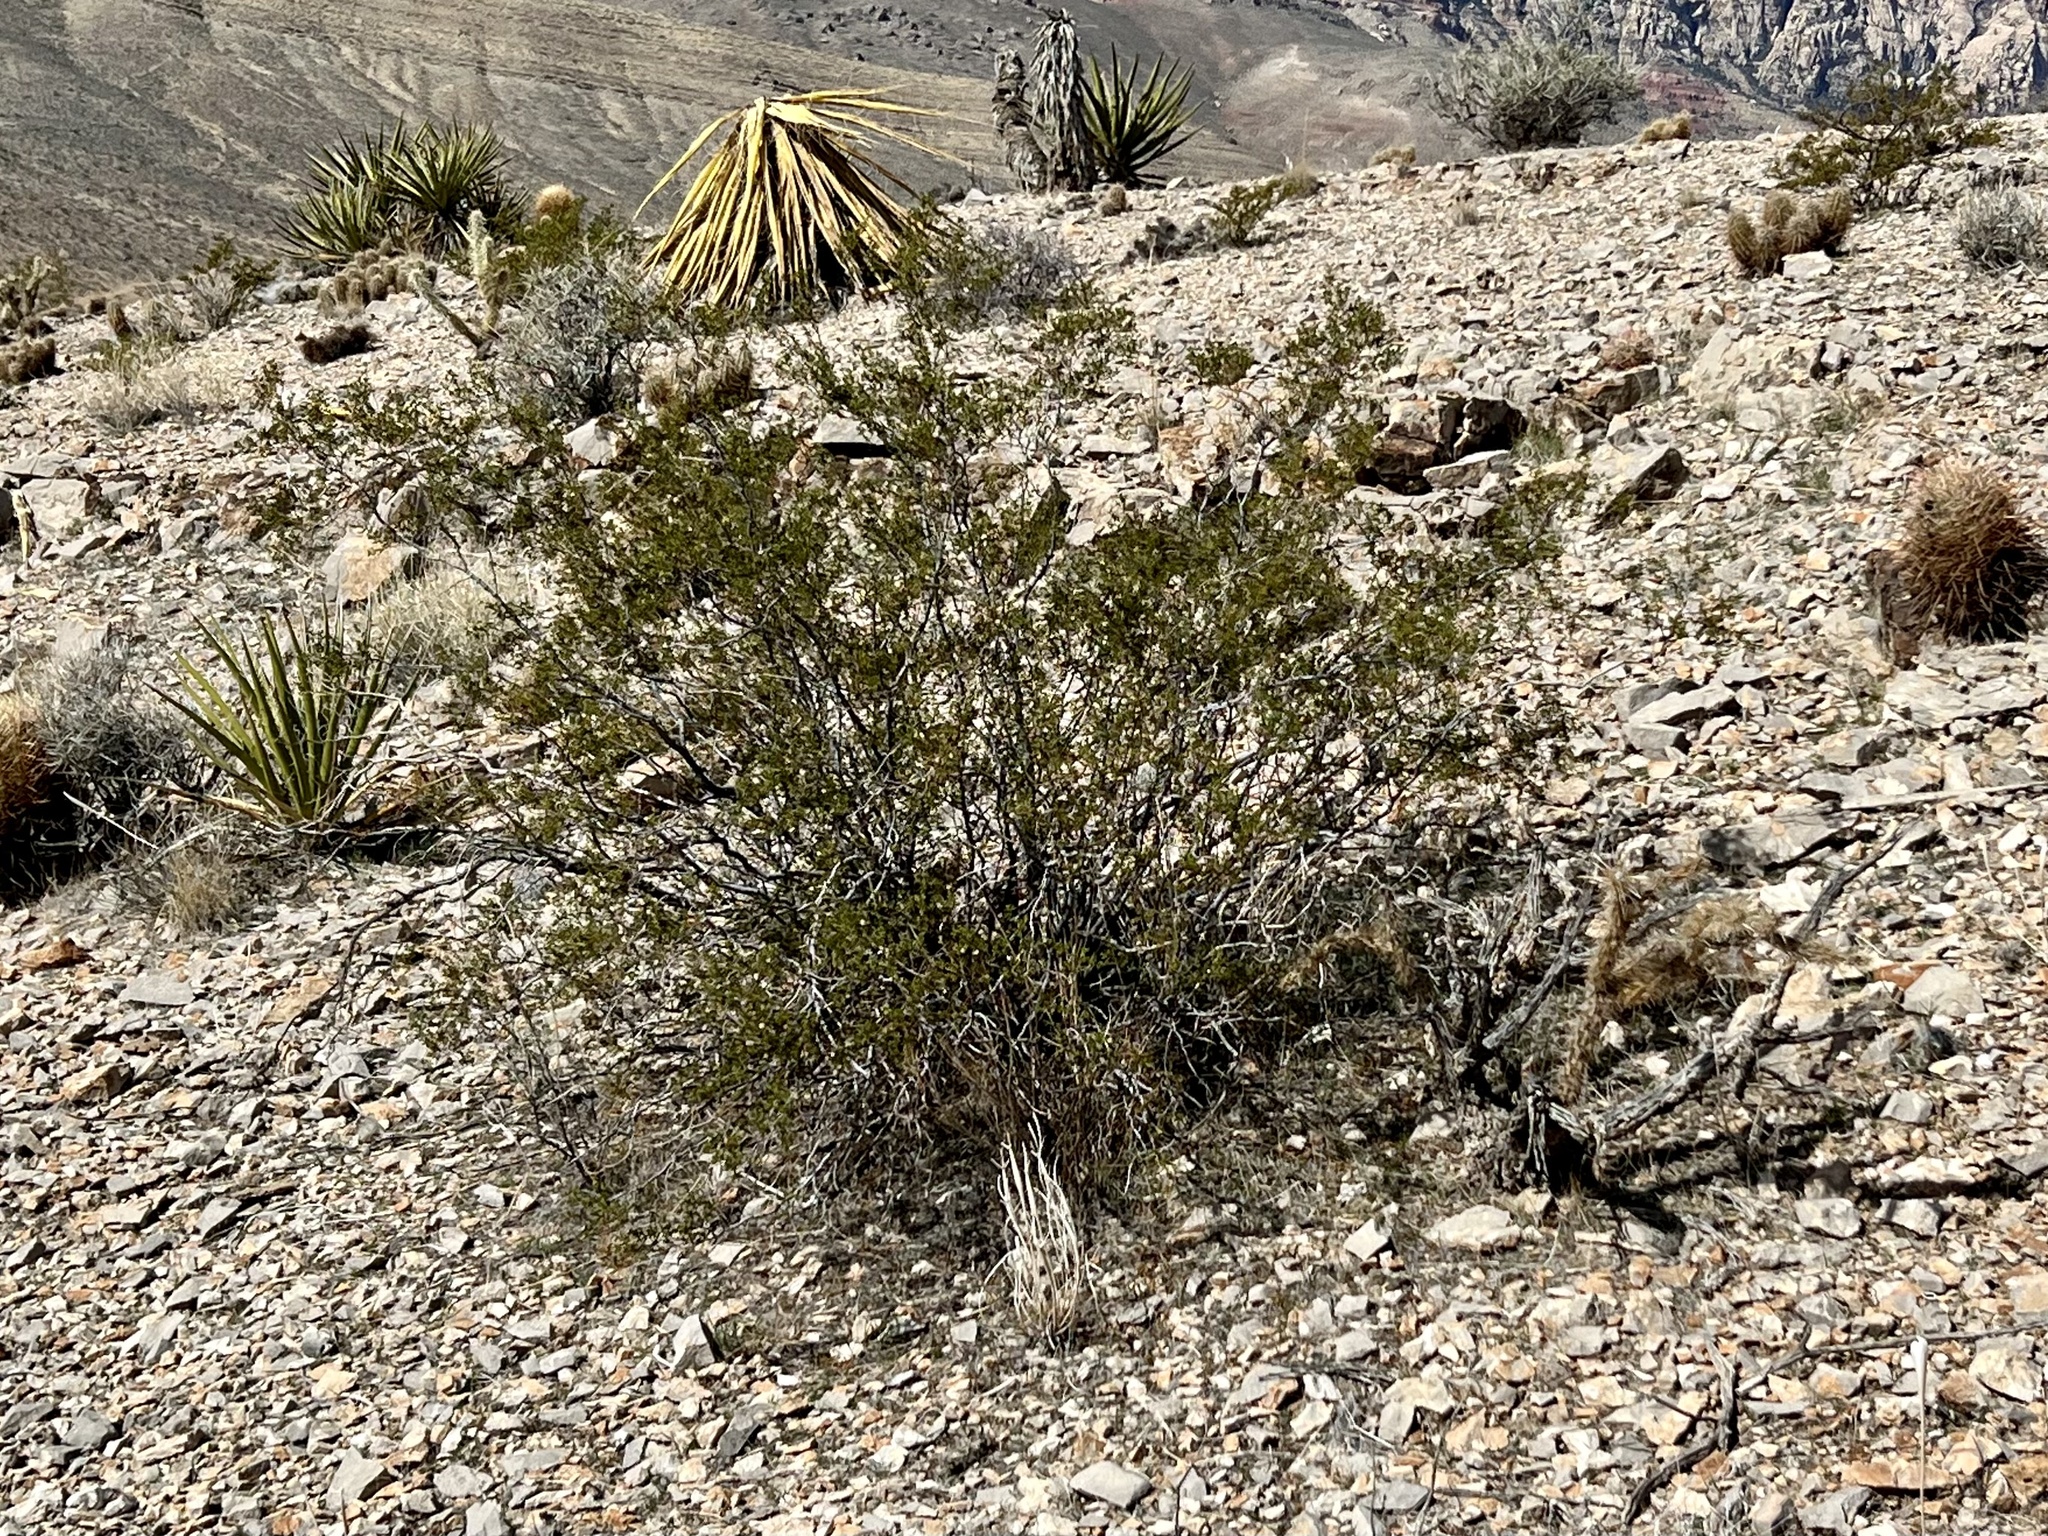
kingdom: Plantae
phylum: Tracheophyta
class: Magnoliopsida
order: Zygophyllales
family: Zygophyllaceae
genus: Larrea
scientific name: Larrea tridentata
